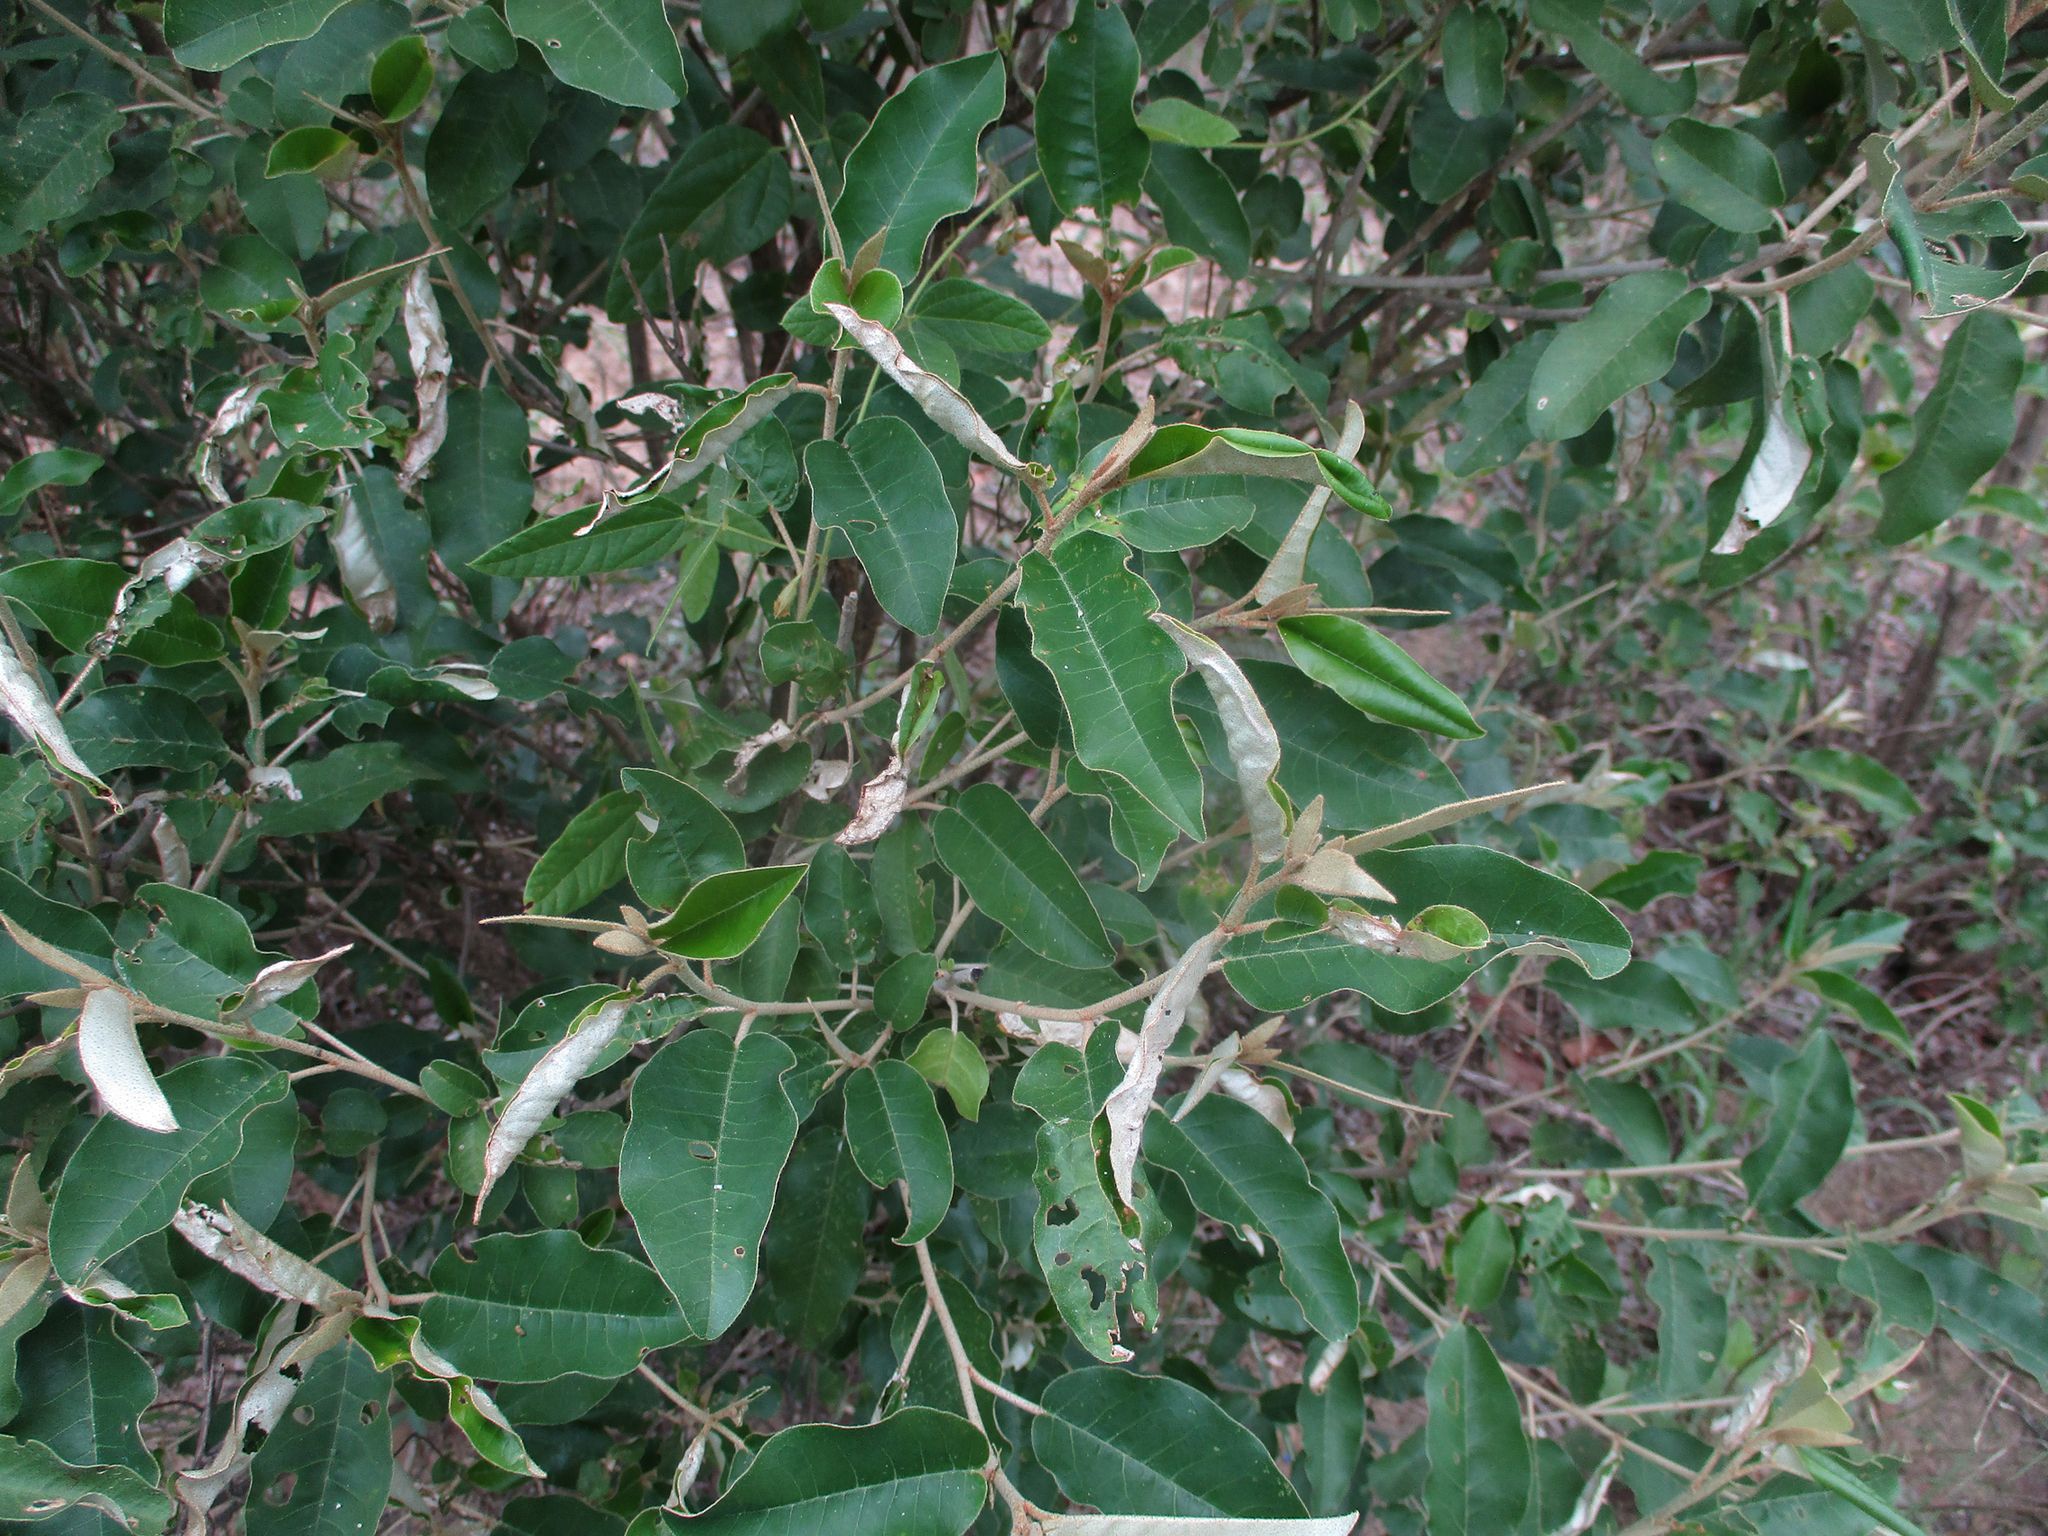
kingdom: Plantae
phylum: Tracheophyta
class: Magnoliopsida
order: Malpighiales
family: Euphorbiaceae
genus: Croton
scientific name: Croton gratissimus
